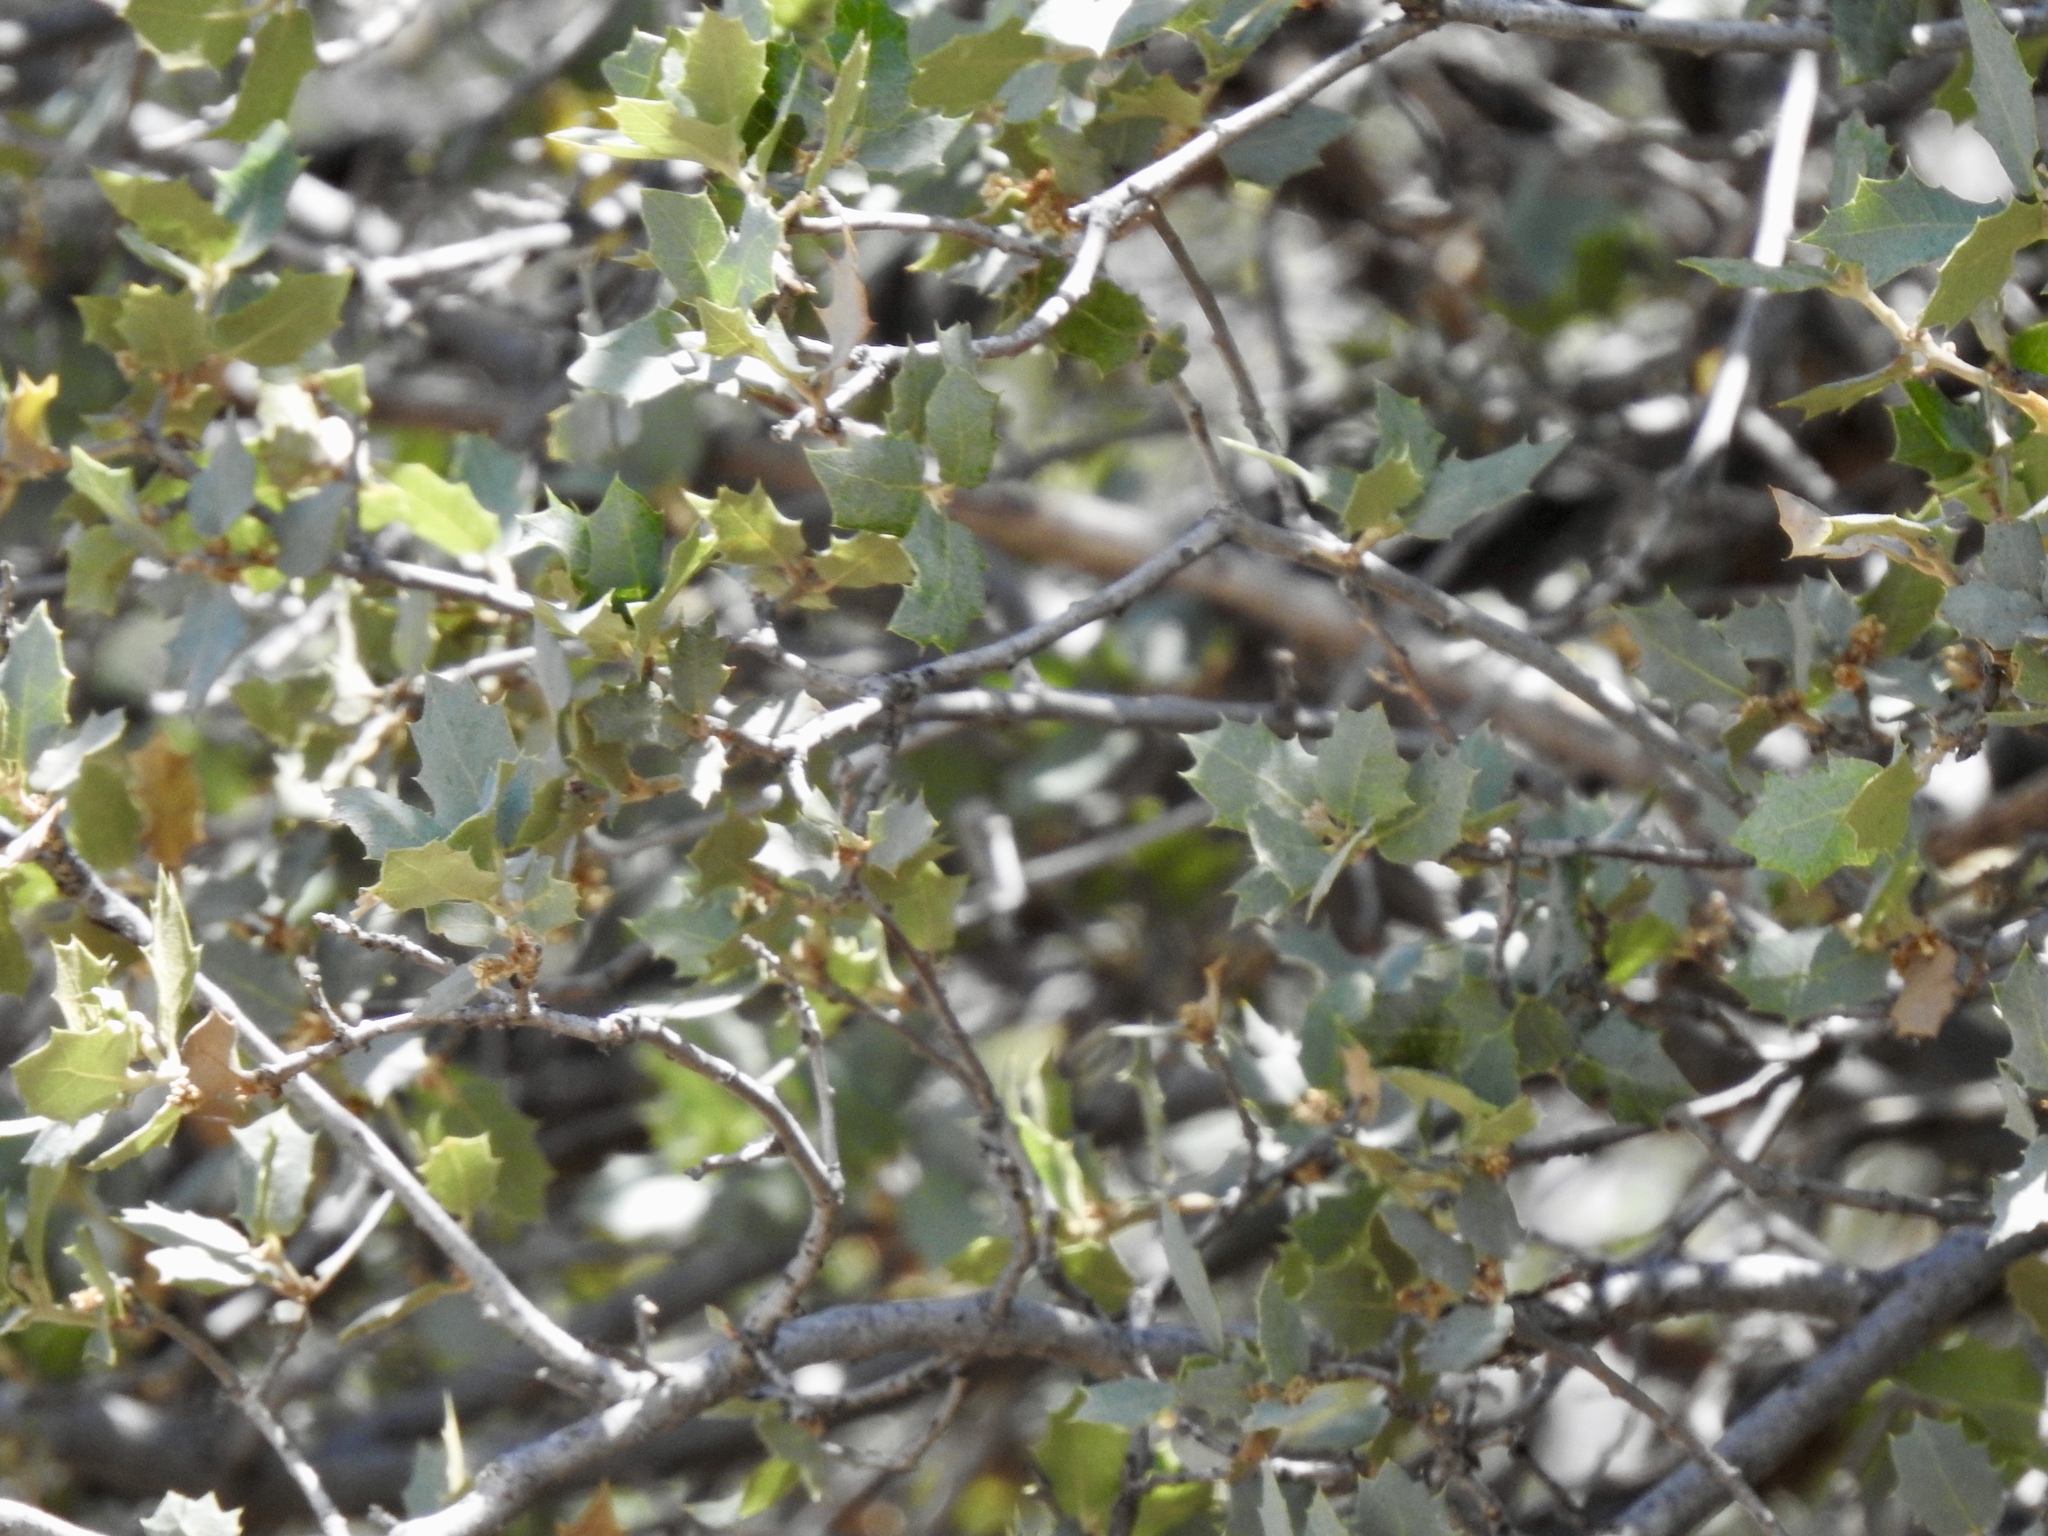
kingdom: Plantae
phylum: Tracheophyta
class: Magnoliopsida
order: Fagales
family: Fagaceae
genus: Quercus
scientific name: Quercus turbinella
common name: Sonoran scrub oak
